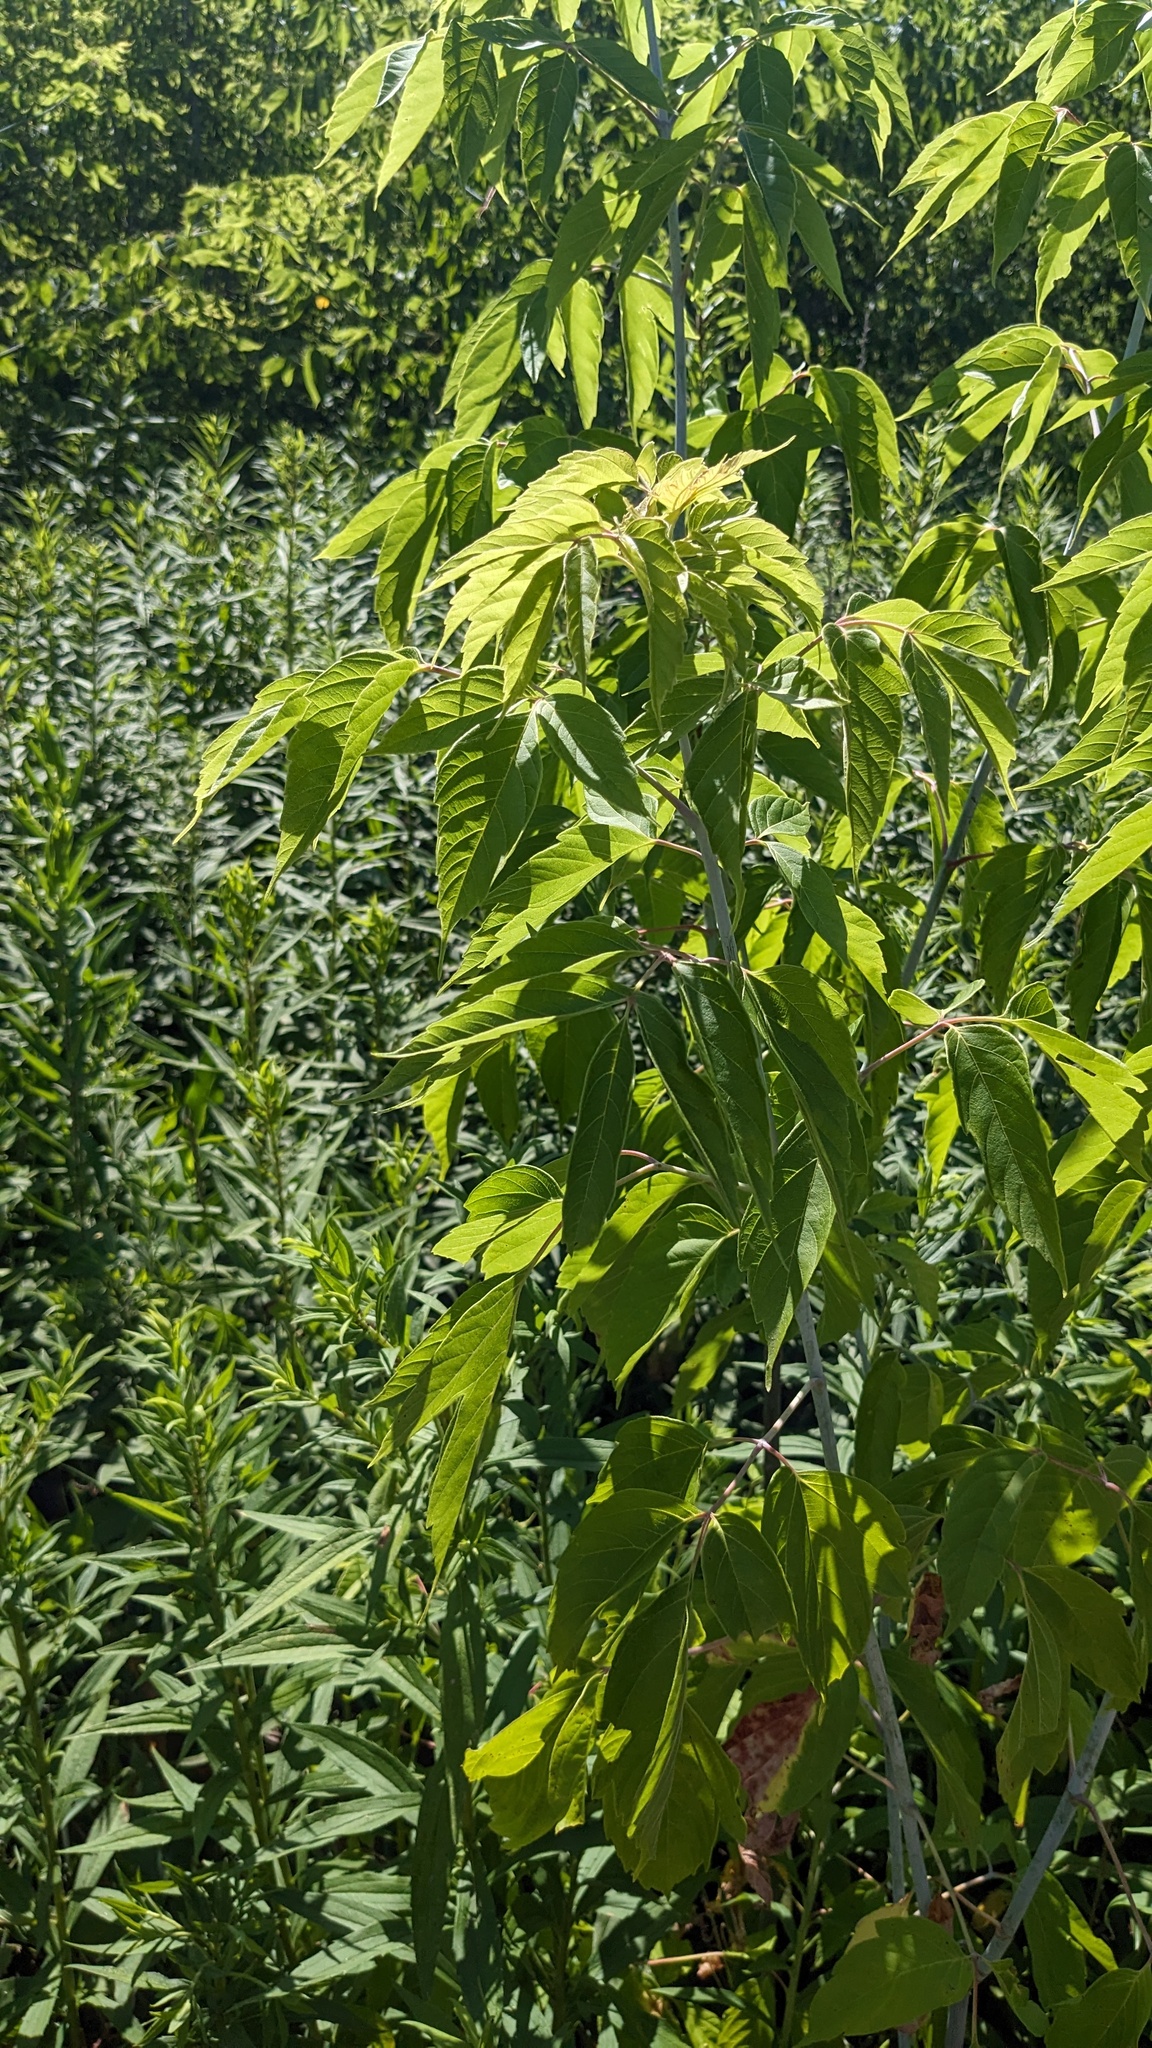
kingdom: Plantae
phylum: Tracheophyta
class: Magnoliopsida
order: Sapindales
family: Sapindaceae
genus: Acer
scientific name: Acer negundo
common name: Ashleaf maple
